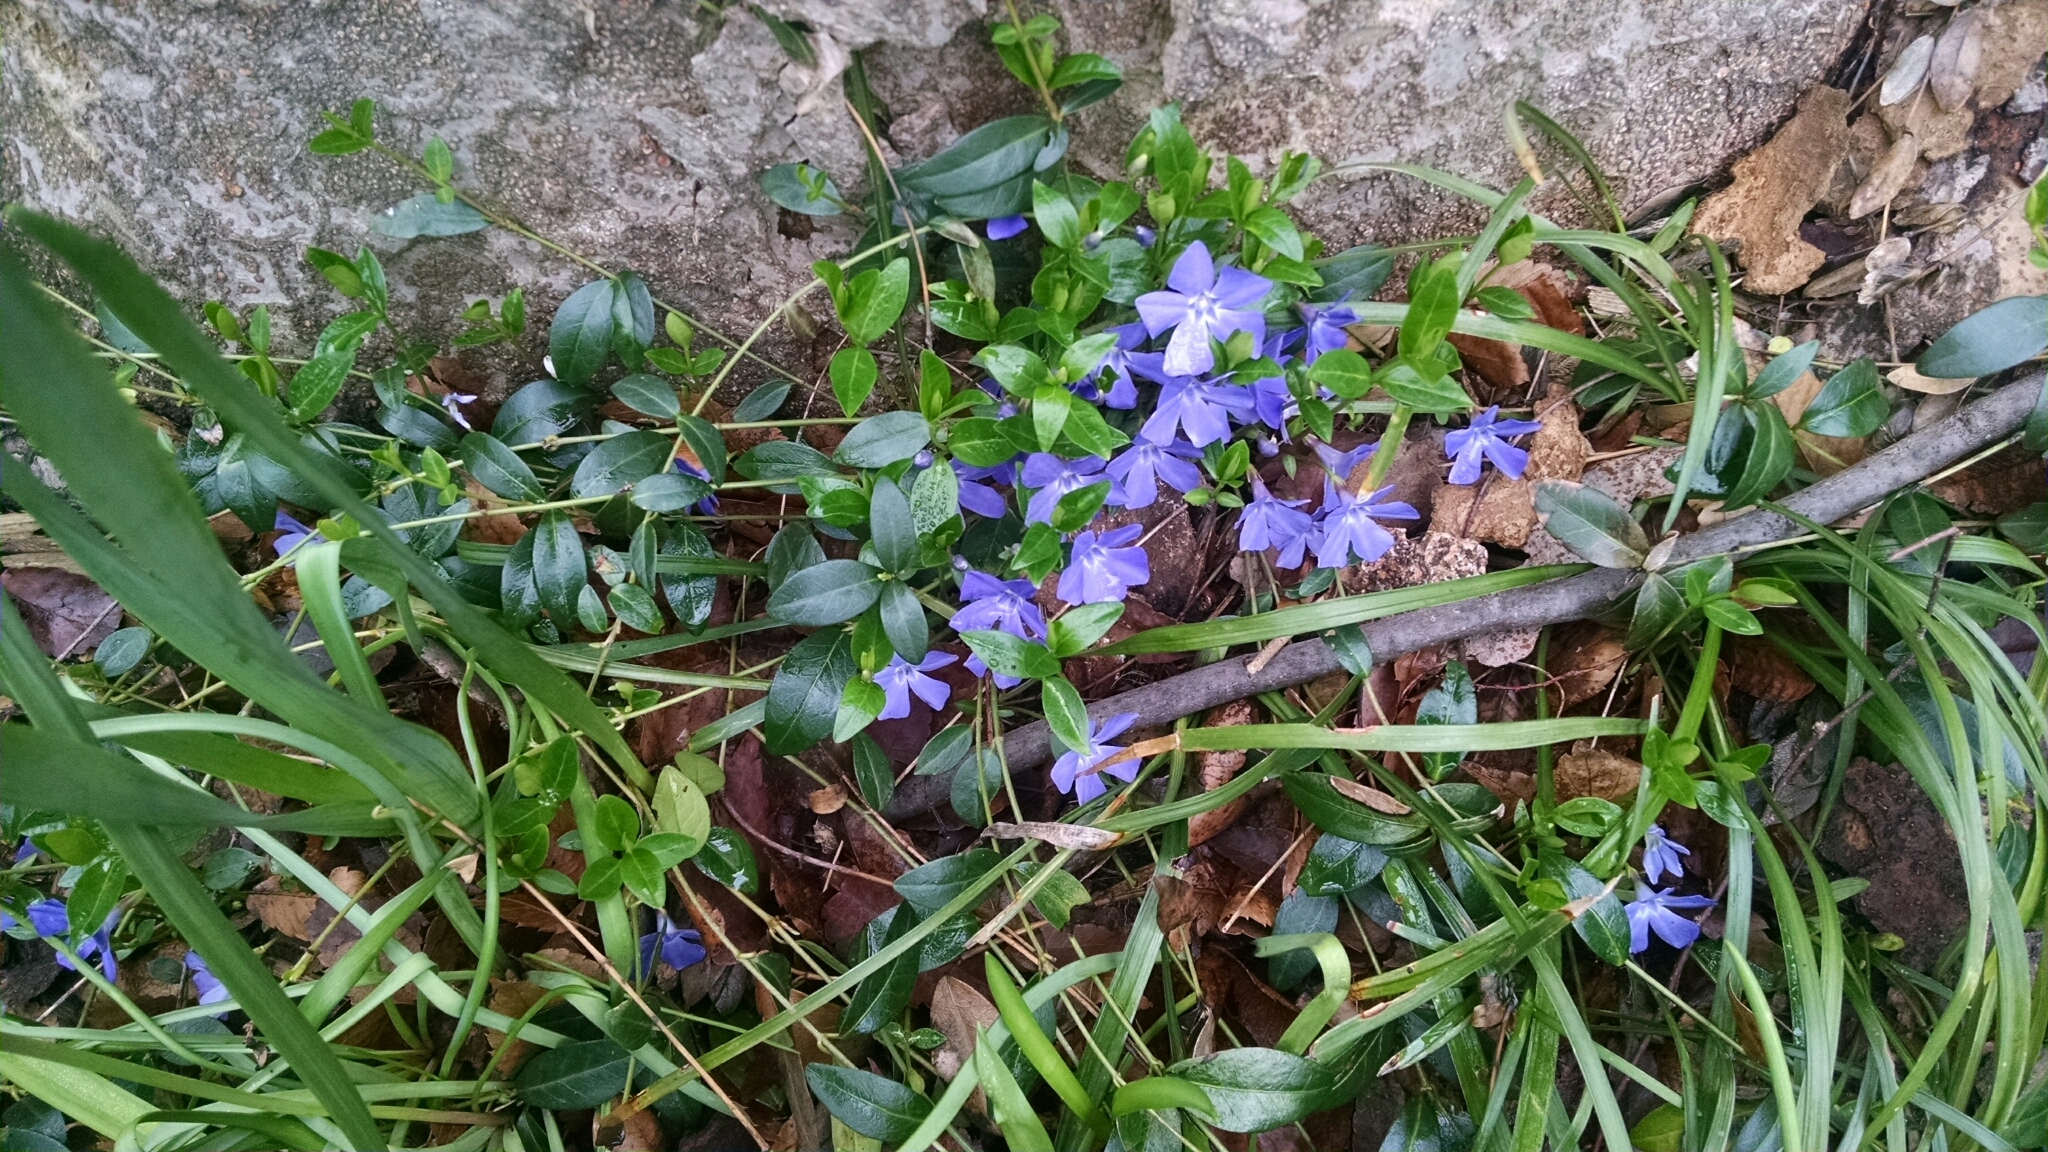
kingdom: Plantae
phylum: Tracheophyta
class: Magnoliopsida
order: Gentianales
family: Apocynaceae
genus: Vinca
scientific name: Vinca minor
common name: Lesser periwinkle
